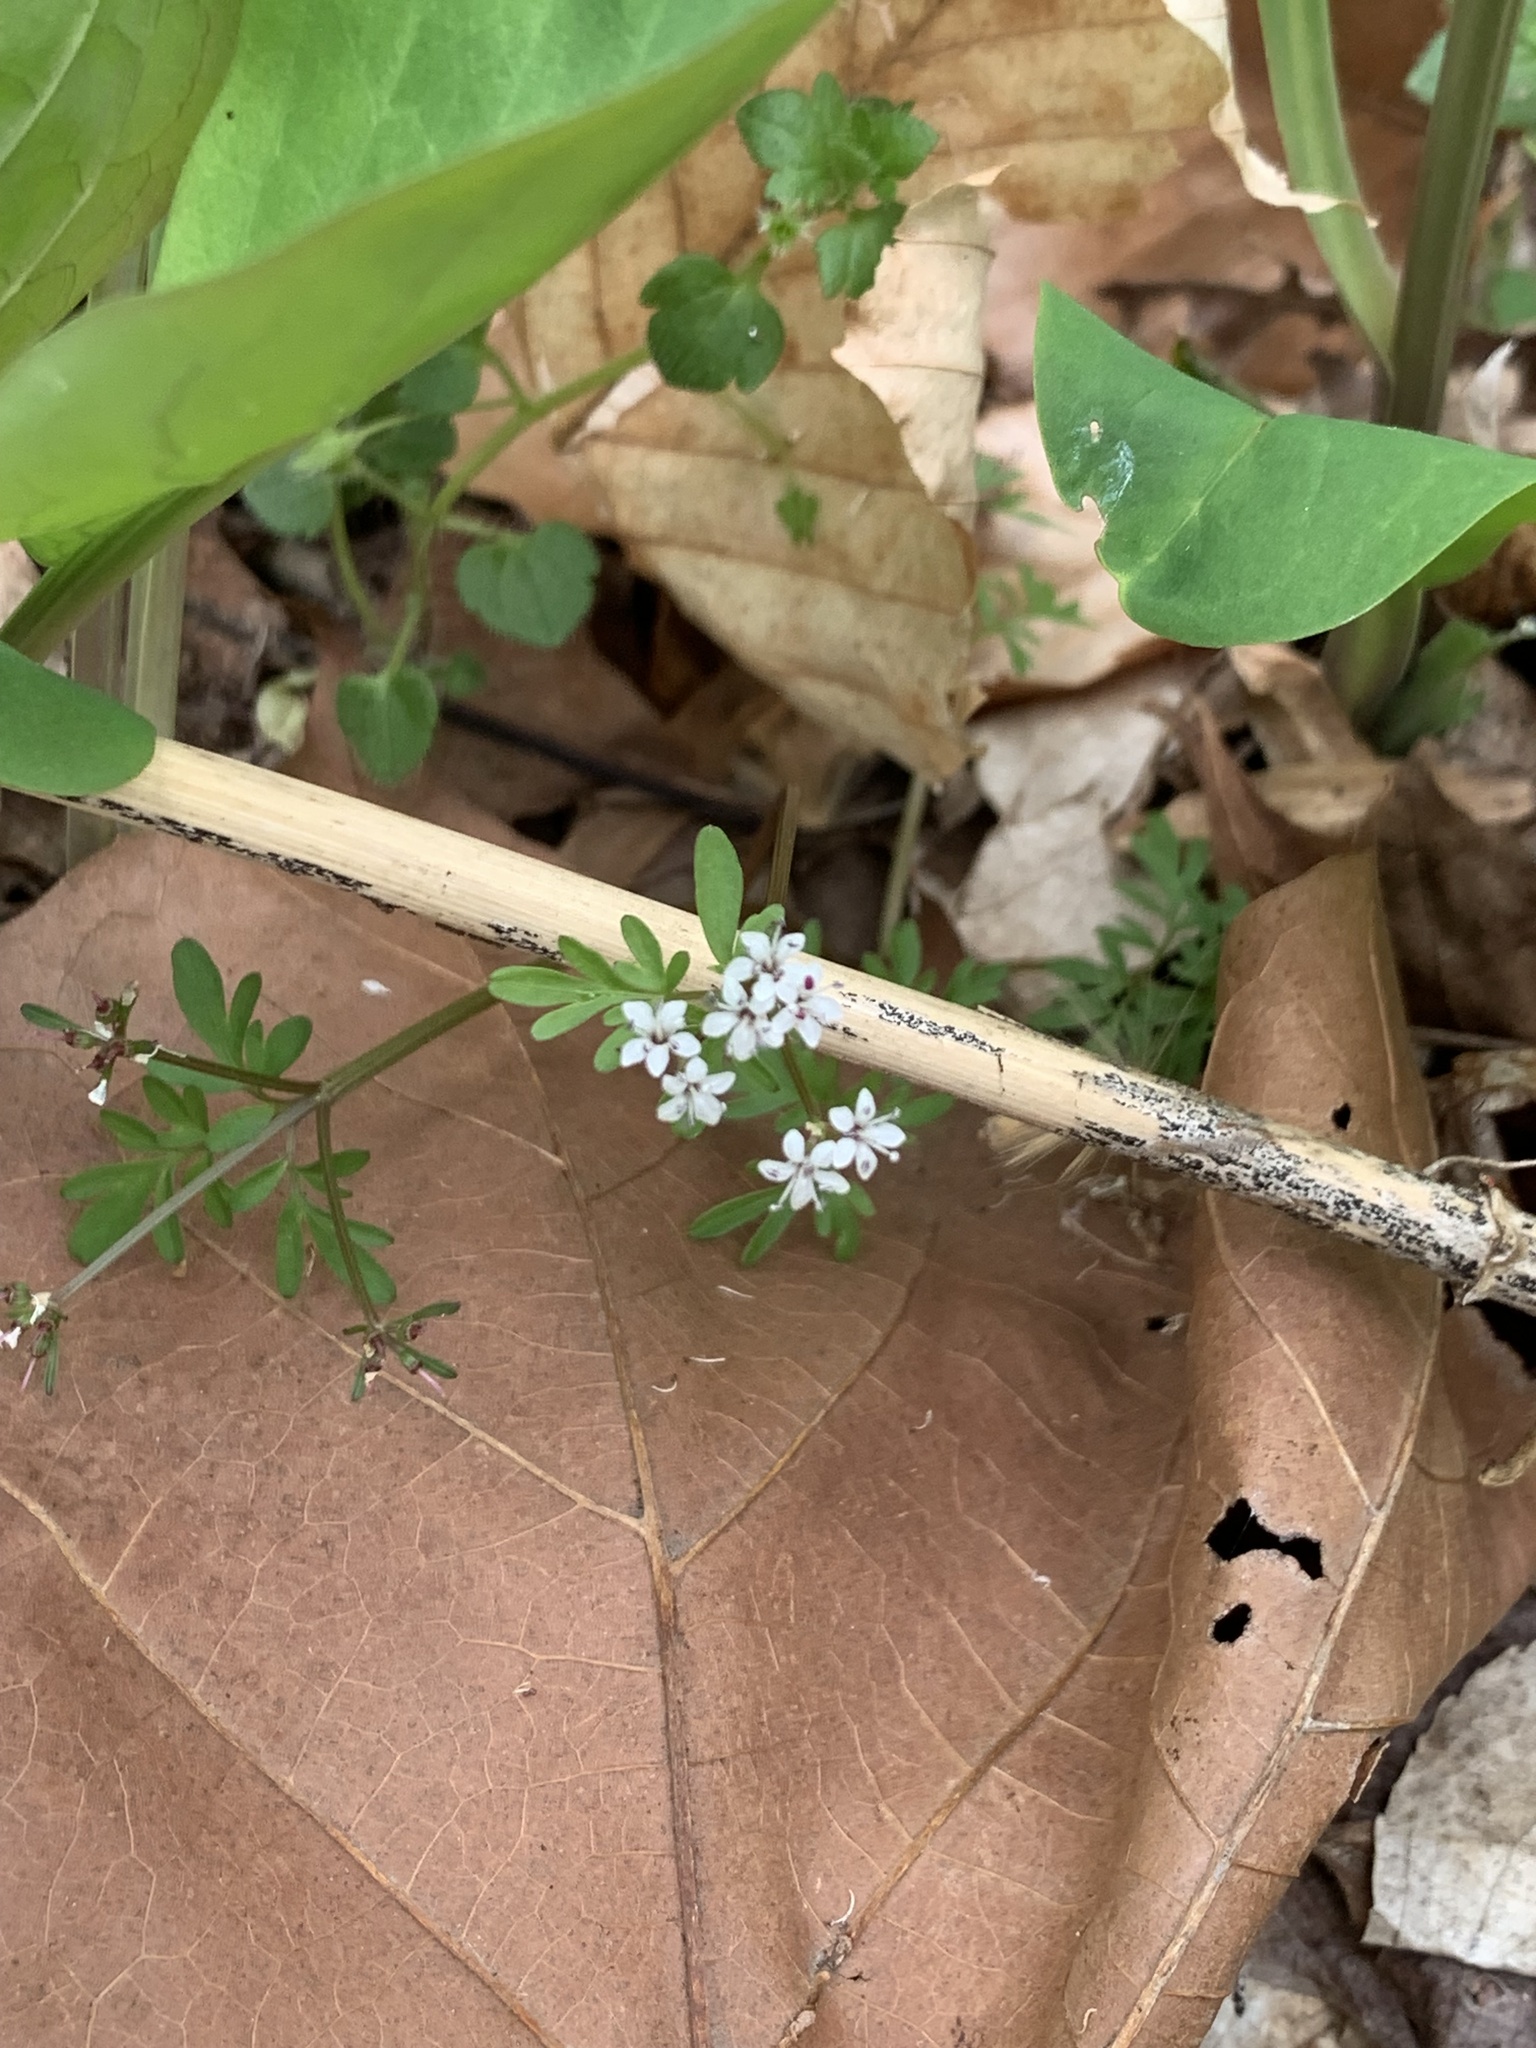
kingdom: Plantae
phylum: Tracheophyta
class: Magnoliopsida
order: Apiales
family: Apiaceae
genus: Erigenia
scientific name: Erigenia bulbosa
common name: Pepper-and-salt
